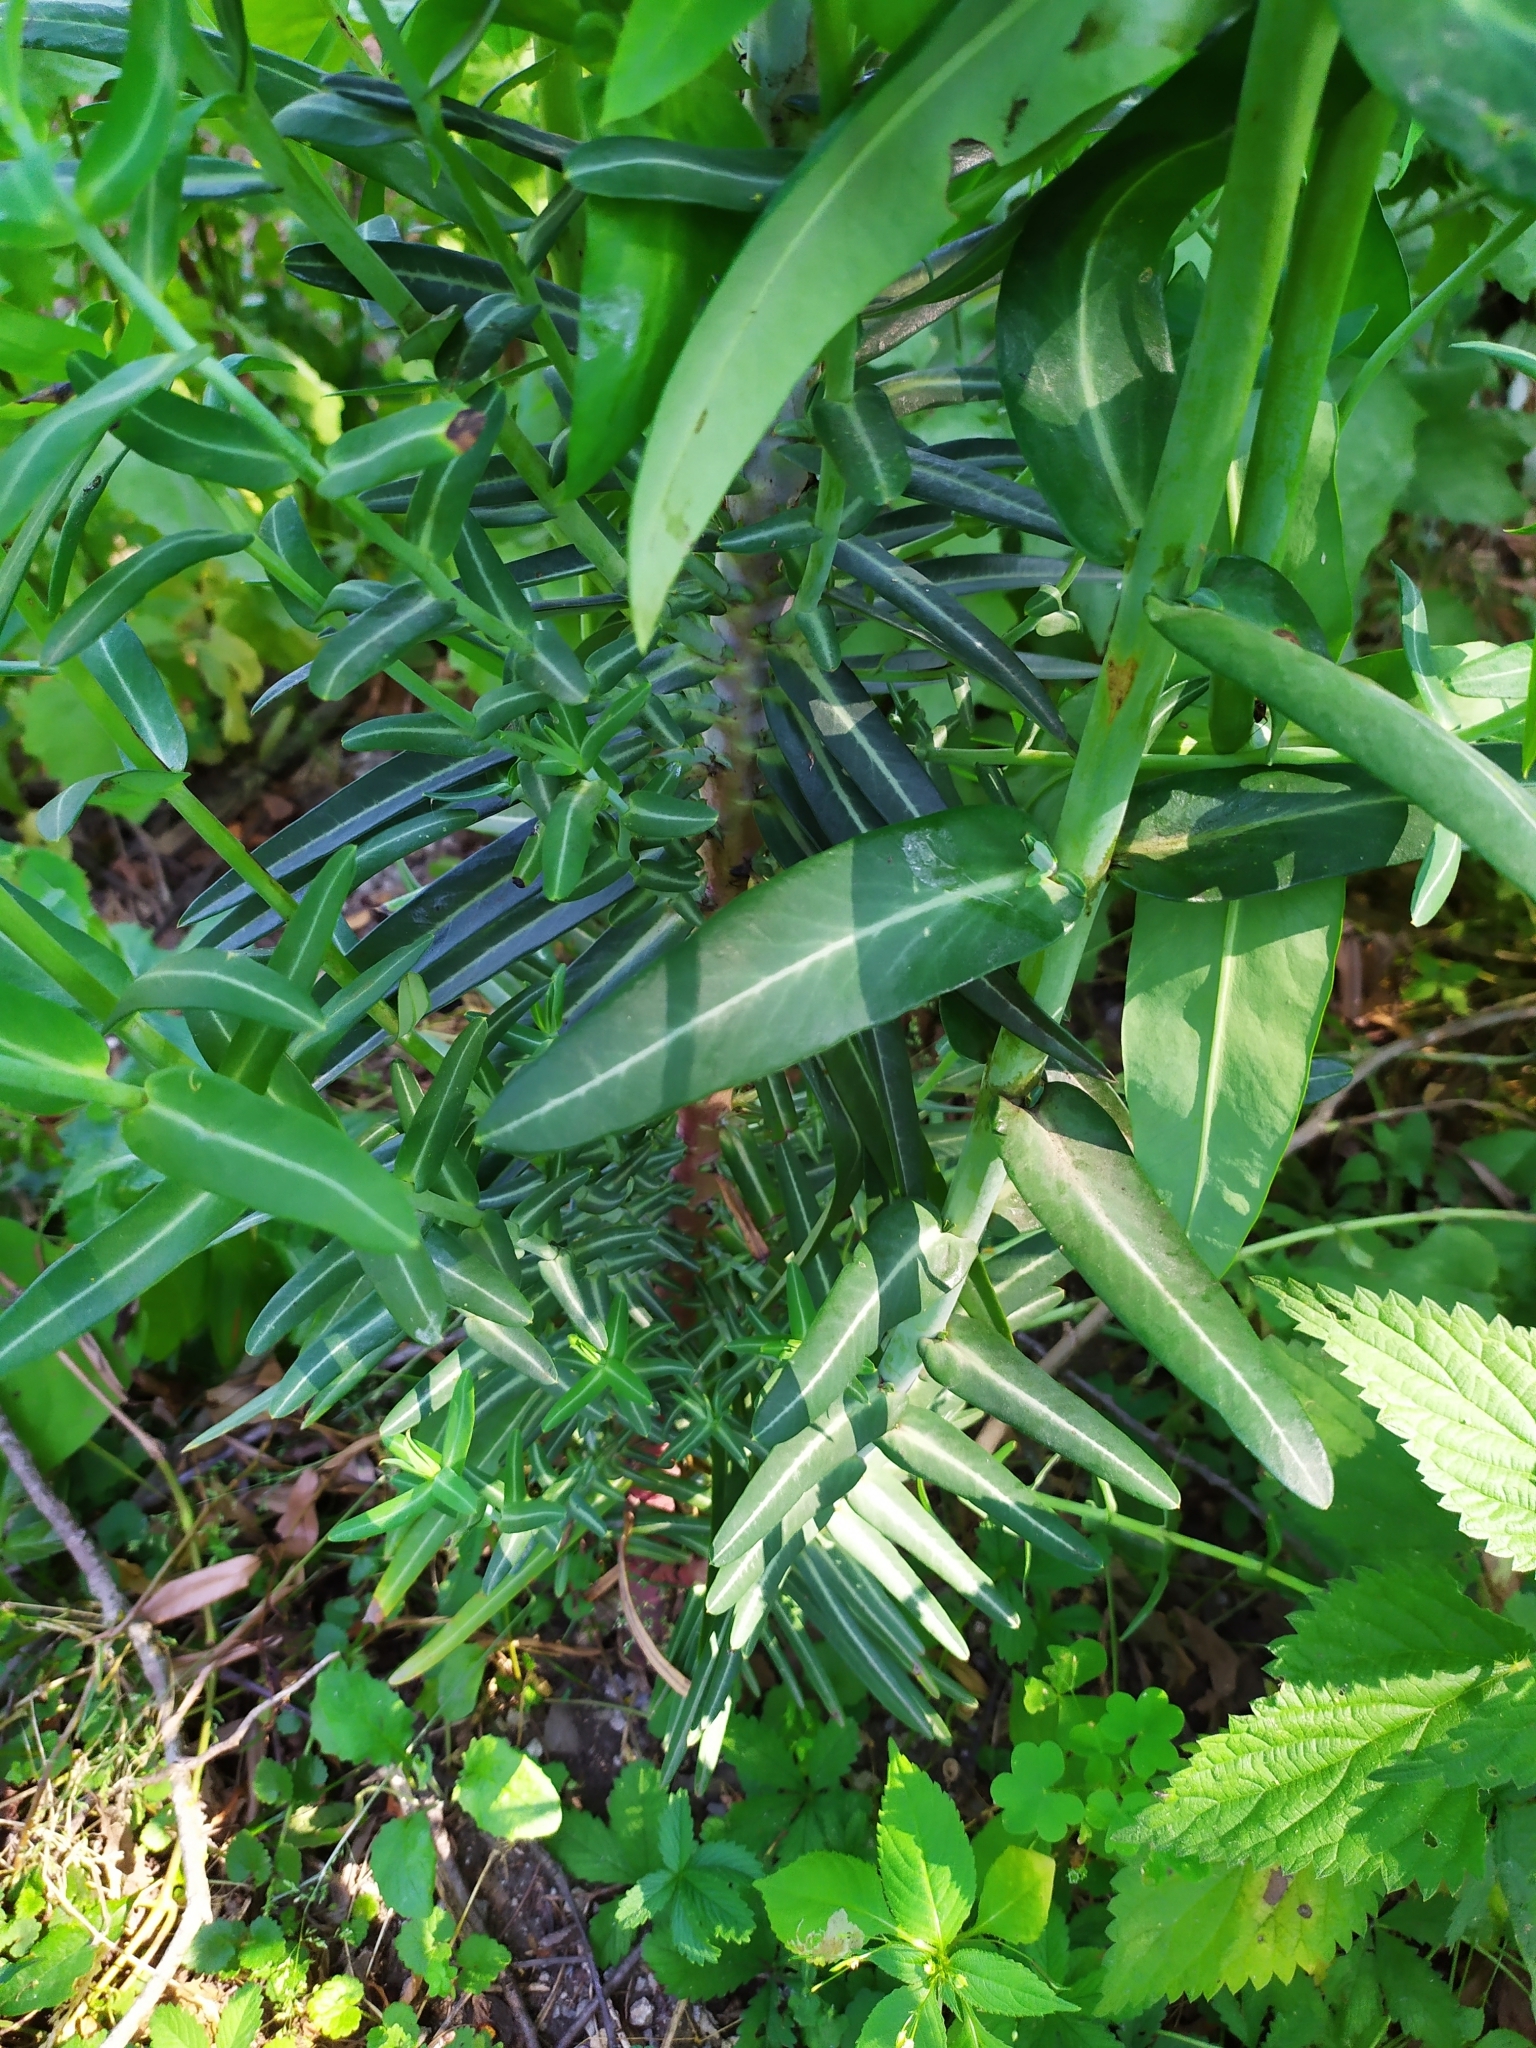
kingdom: Plantae
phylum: Tracheophyta
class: Magnoliopsida
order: Malpighiales
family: Euphorbiaceae
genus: Euphorbia
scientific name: Euphorbia lathyris
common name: Caper spurge
